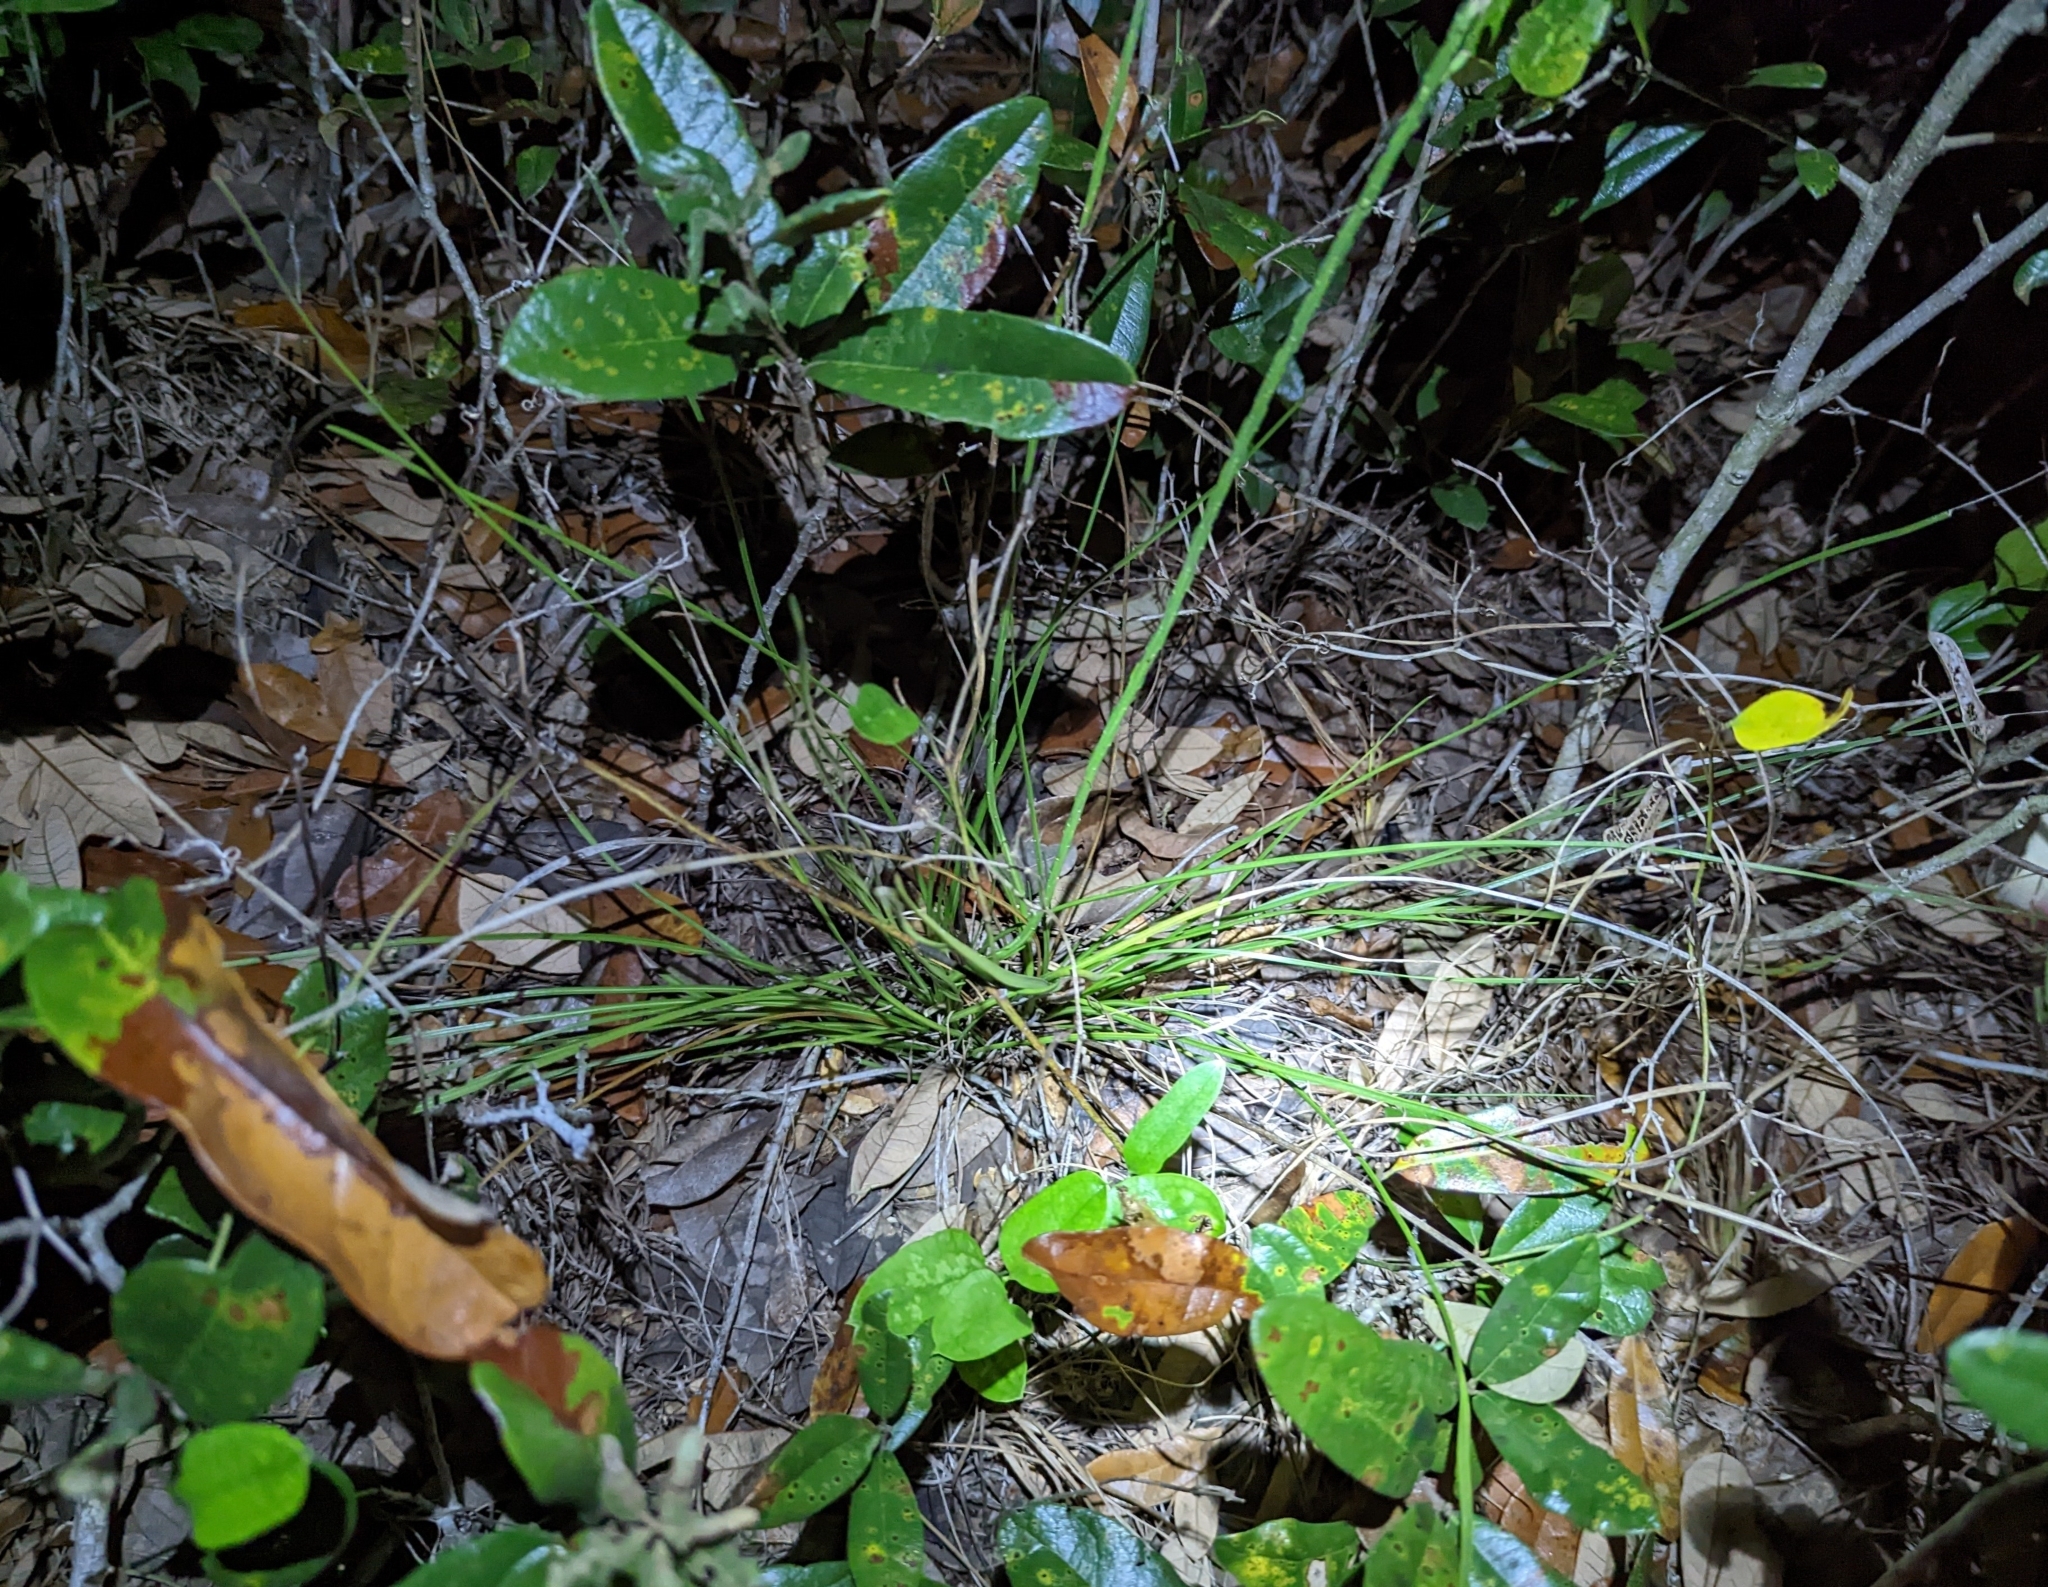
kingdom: Plantae
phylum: Tracheophyta
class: Magnoliopsida
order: Asterales
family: Asteraceae
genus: Liatris
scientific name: Liatris laevigata
